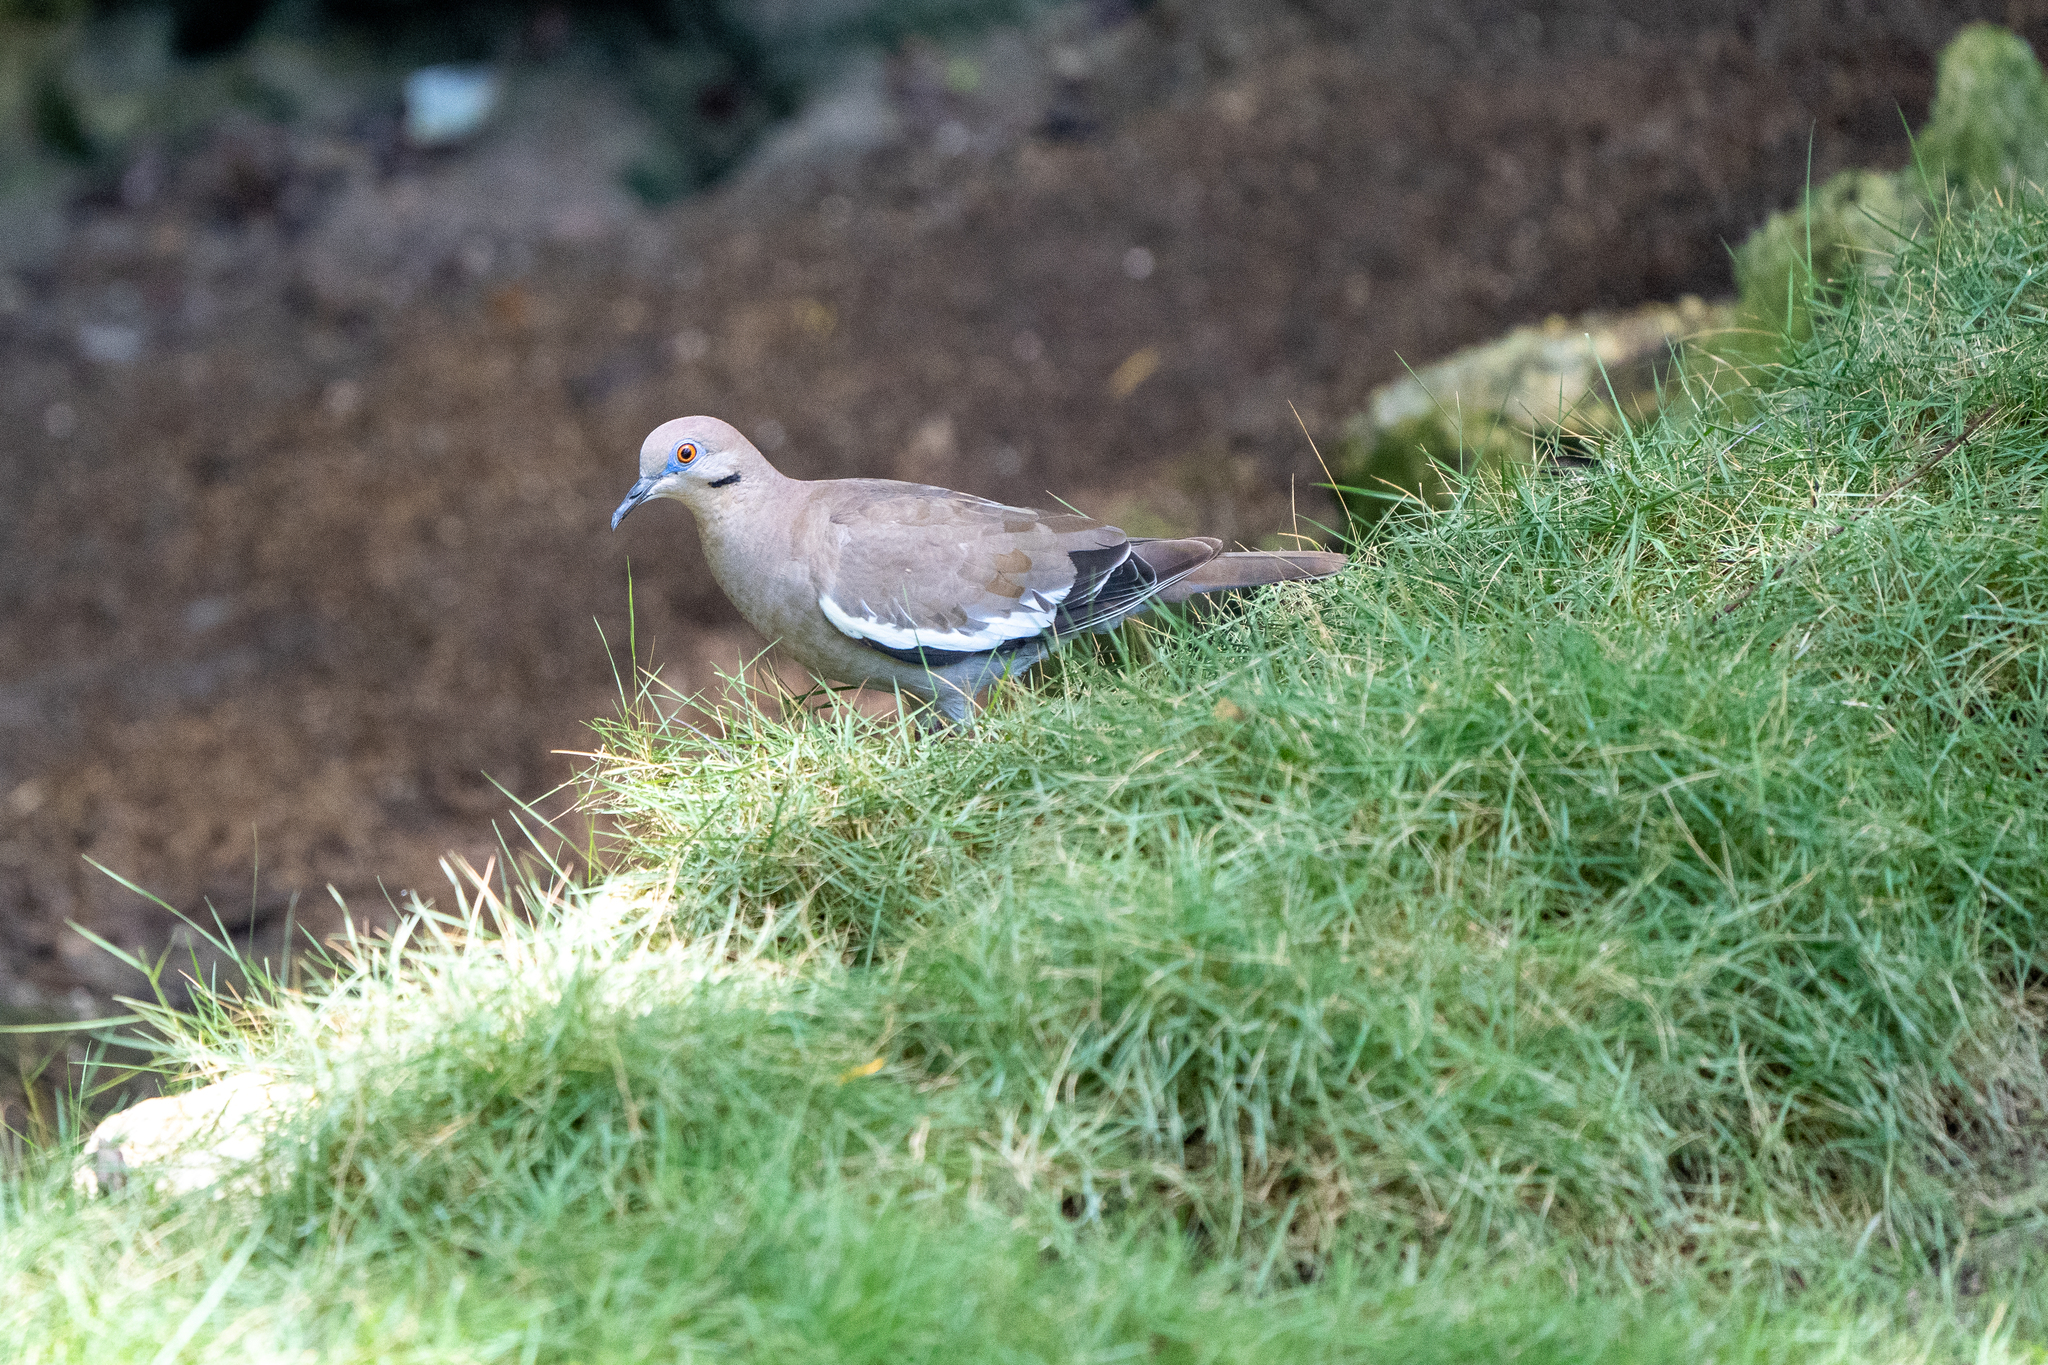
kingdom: Animalia
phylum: Chordata
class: Aves
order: Columbiformes
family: Columbidae
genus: Zenaida
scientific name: Zenaida asiatica
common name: White-winged dove
